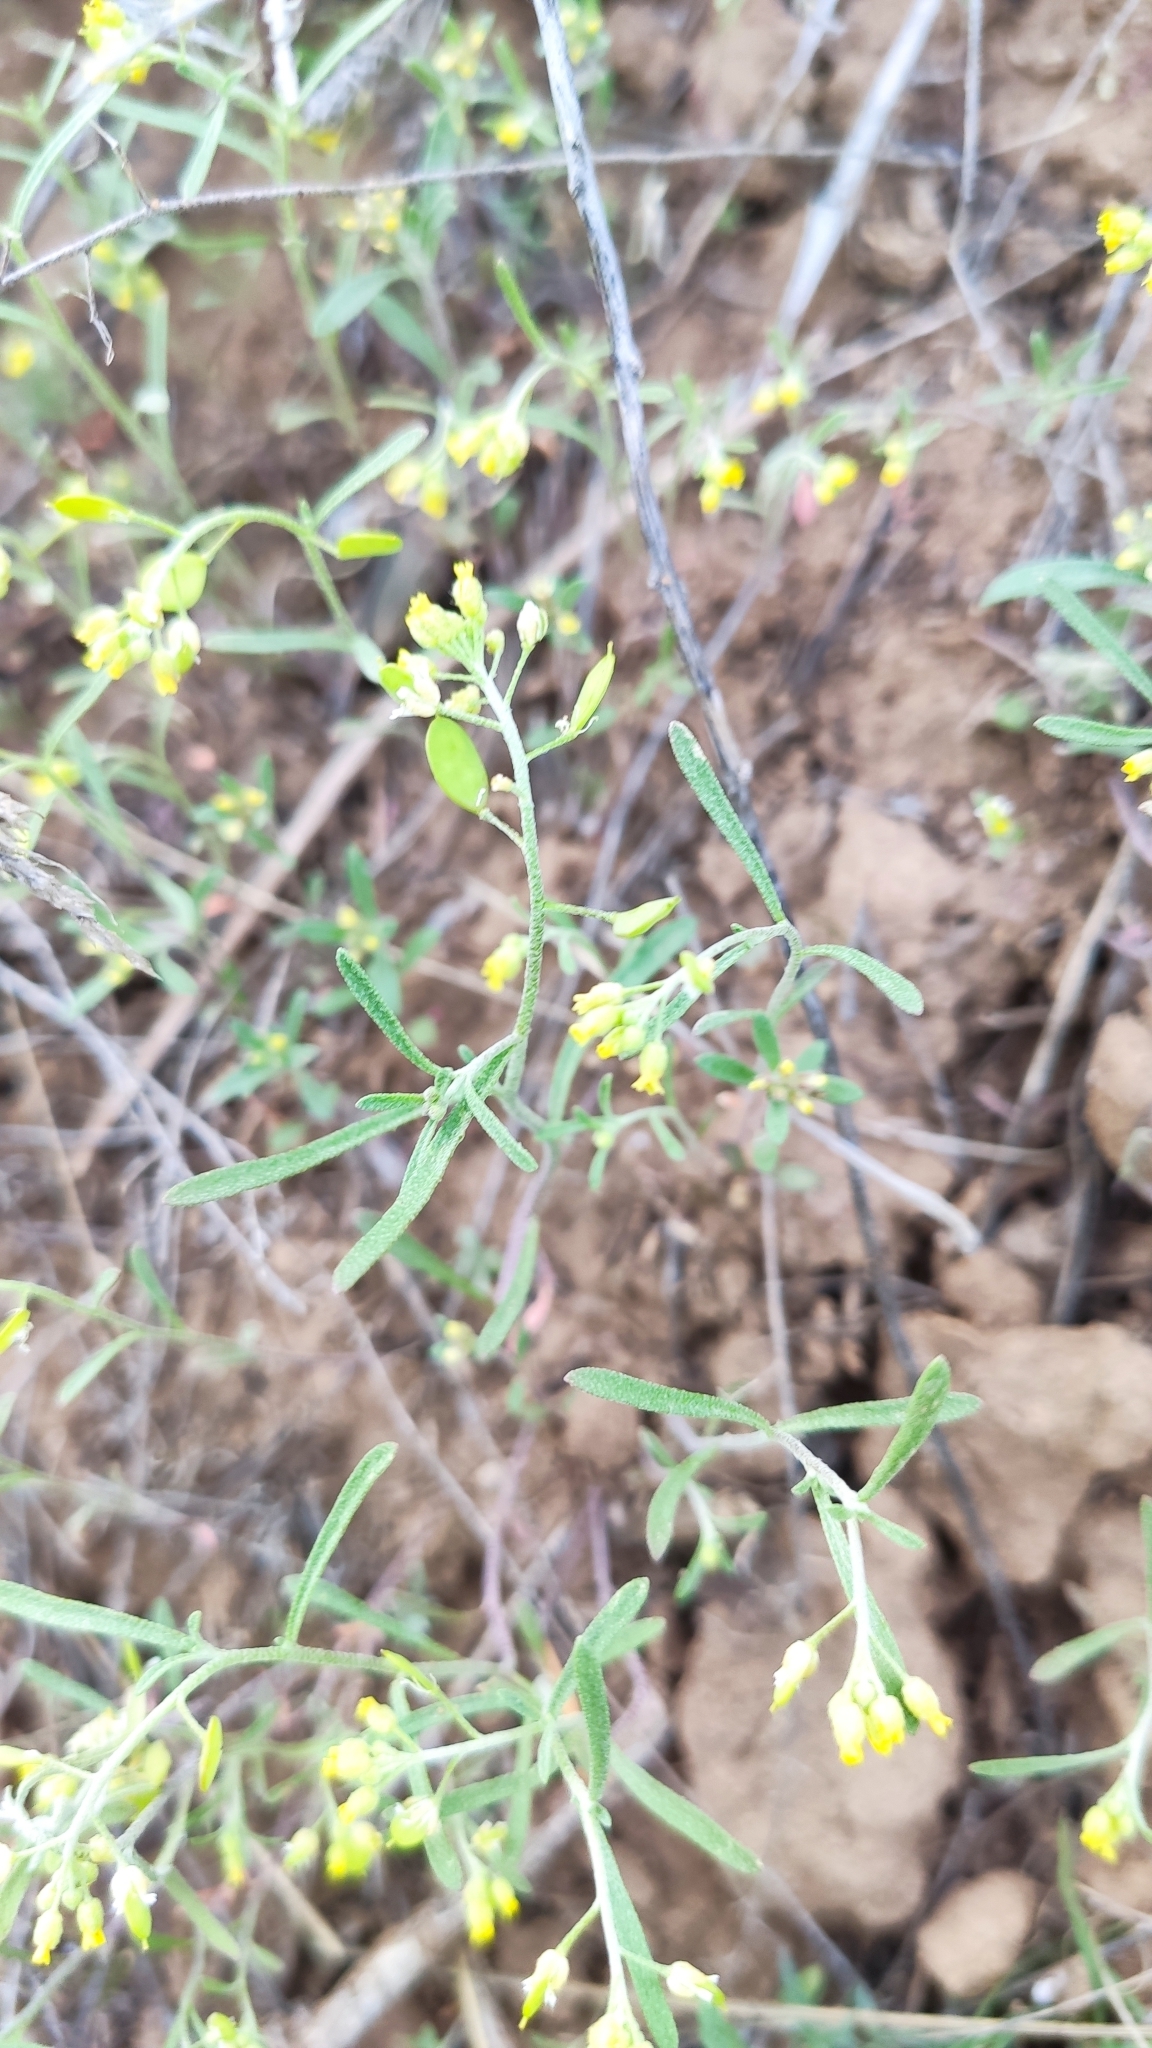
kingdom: Plantae
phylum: Tracheophyta
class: Magnoliopsida
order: Brassicales
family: Brassicaceae
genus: Meniocus
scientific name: Meniocus linifolius
